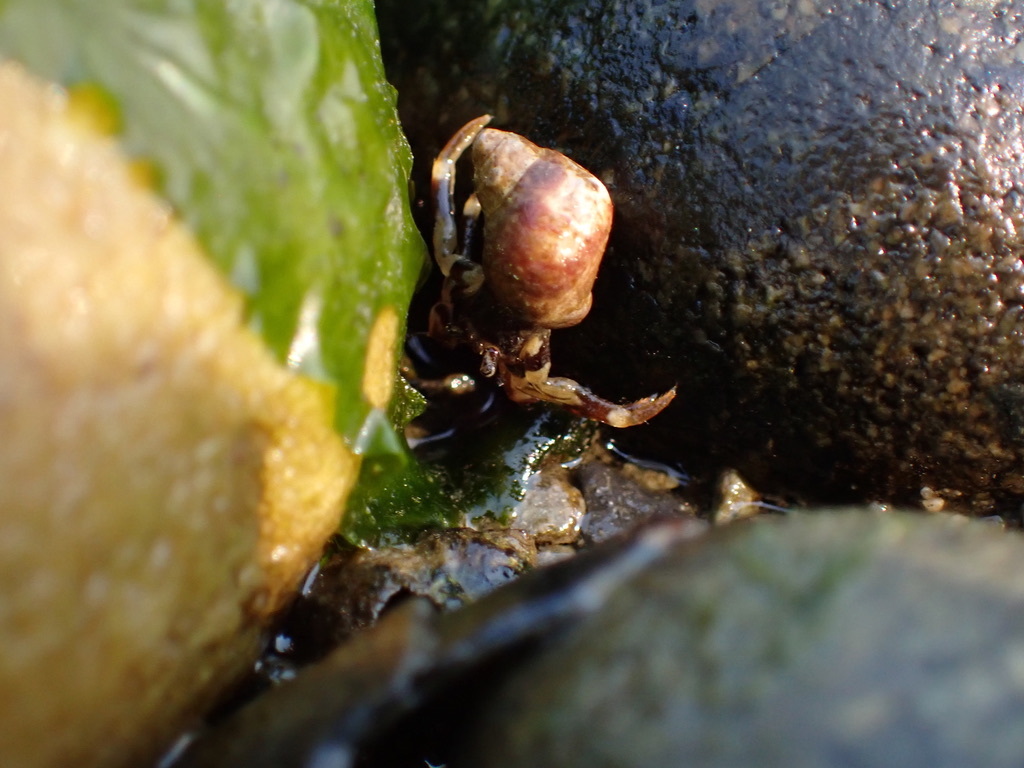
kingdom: Animalia
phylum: Arthropoda
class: Malacostraca
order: Decapoda
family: Paguridae
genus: Pagurus
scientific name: Pagurus hirsutiusculus
